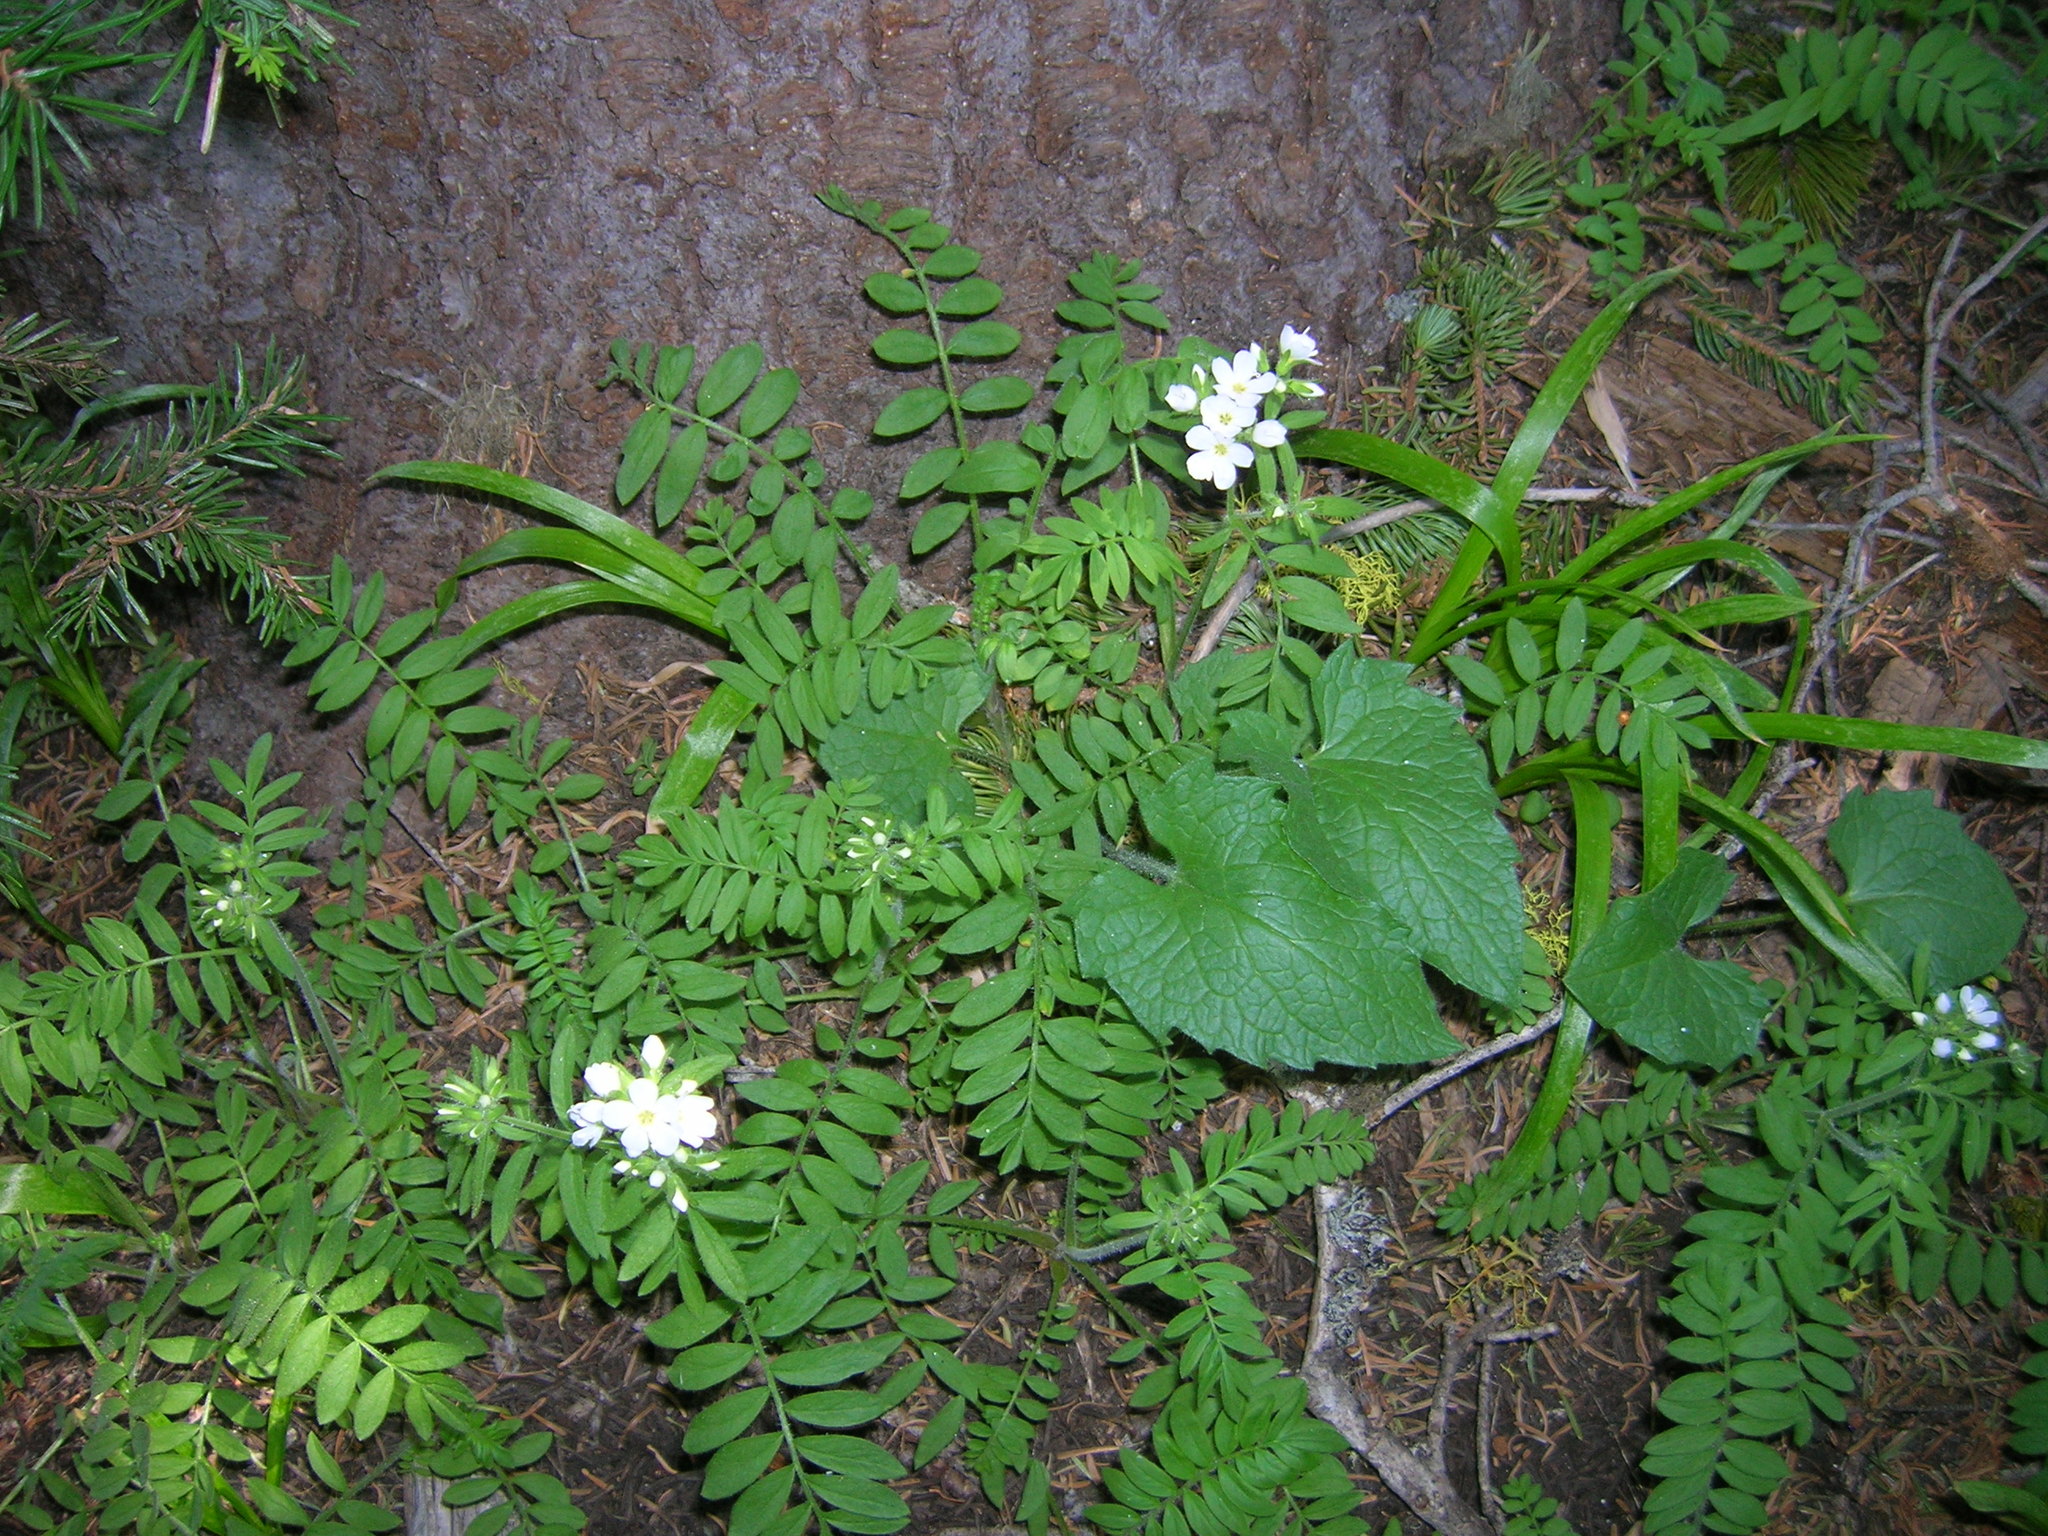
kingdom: Plantae
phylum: Tracheophyta
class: Magnoliopsida
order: Ericales
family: Polemoniaceae
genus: Polemonium
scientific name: Polemonium californicum
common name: California jacob's ladder
